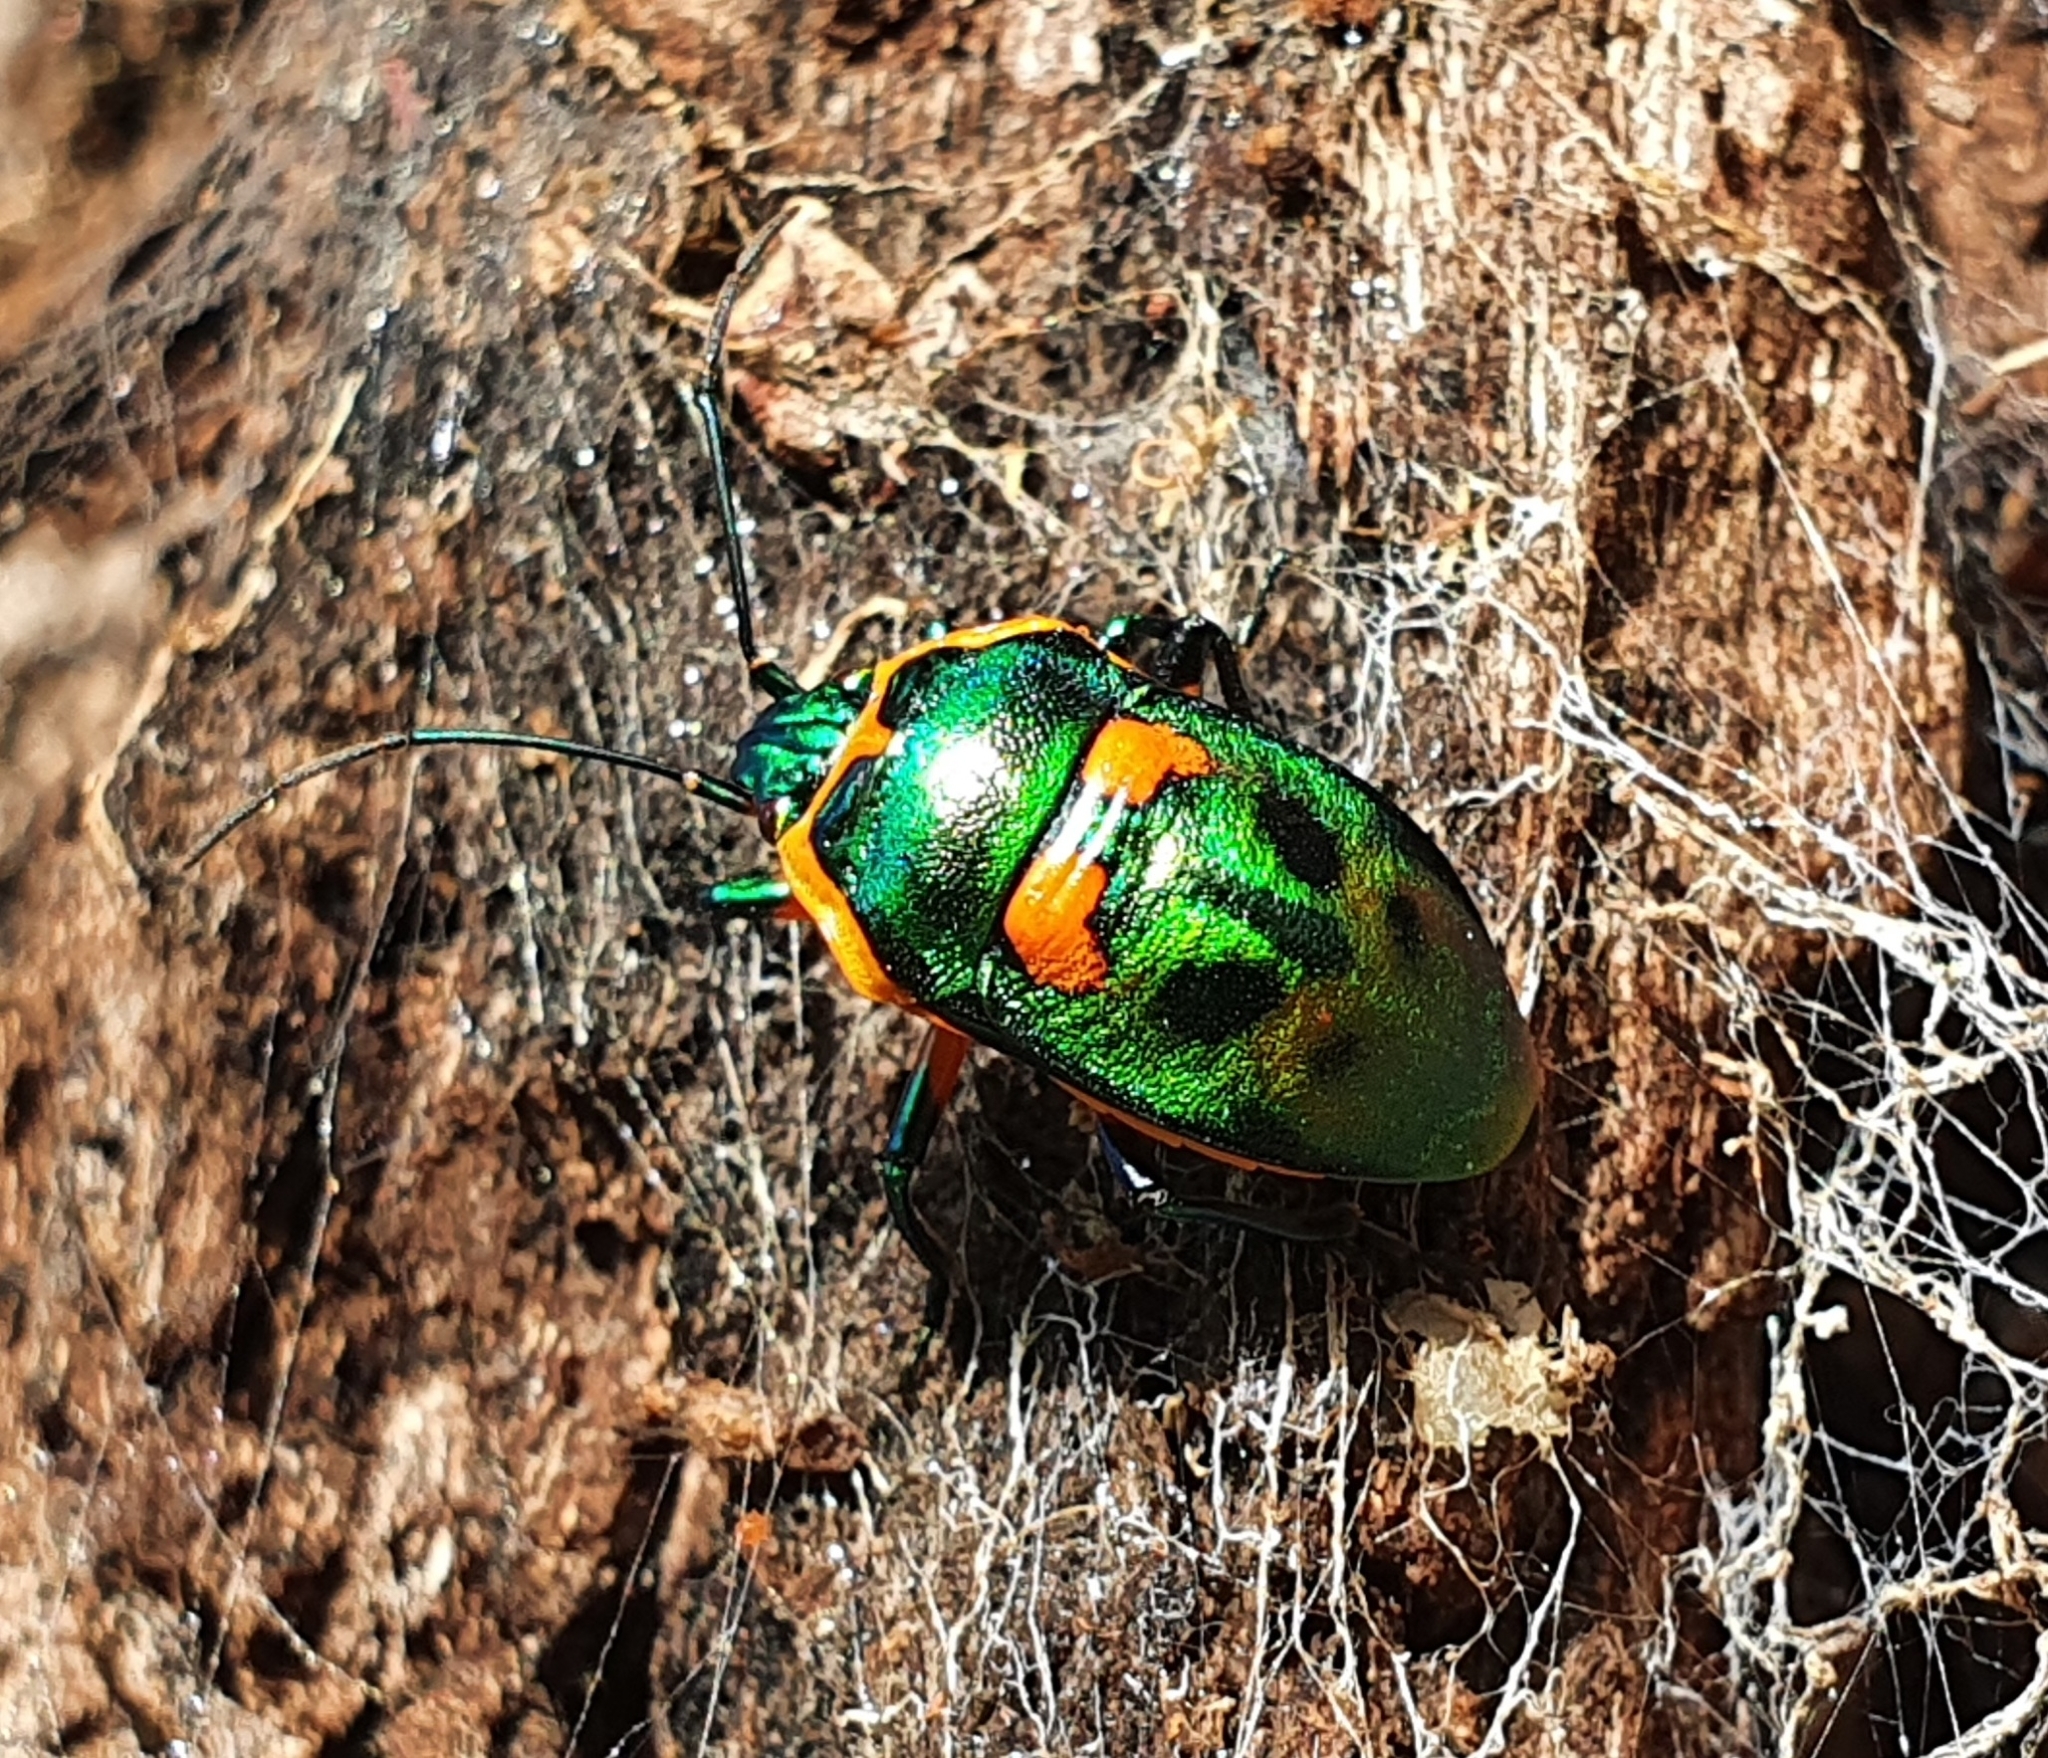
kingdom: Animalia
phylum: Arthropoda
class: Insecta
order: Hemiptera
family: Scutelleridae
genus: Scutiphora
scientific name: Scutiphora pedicellata
